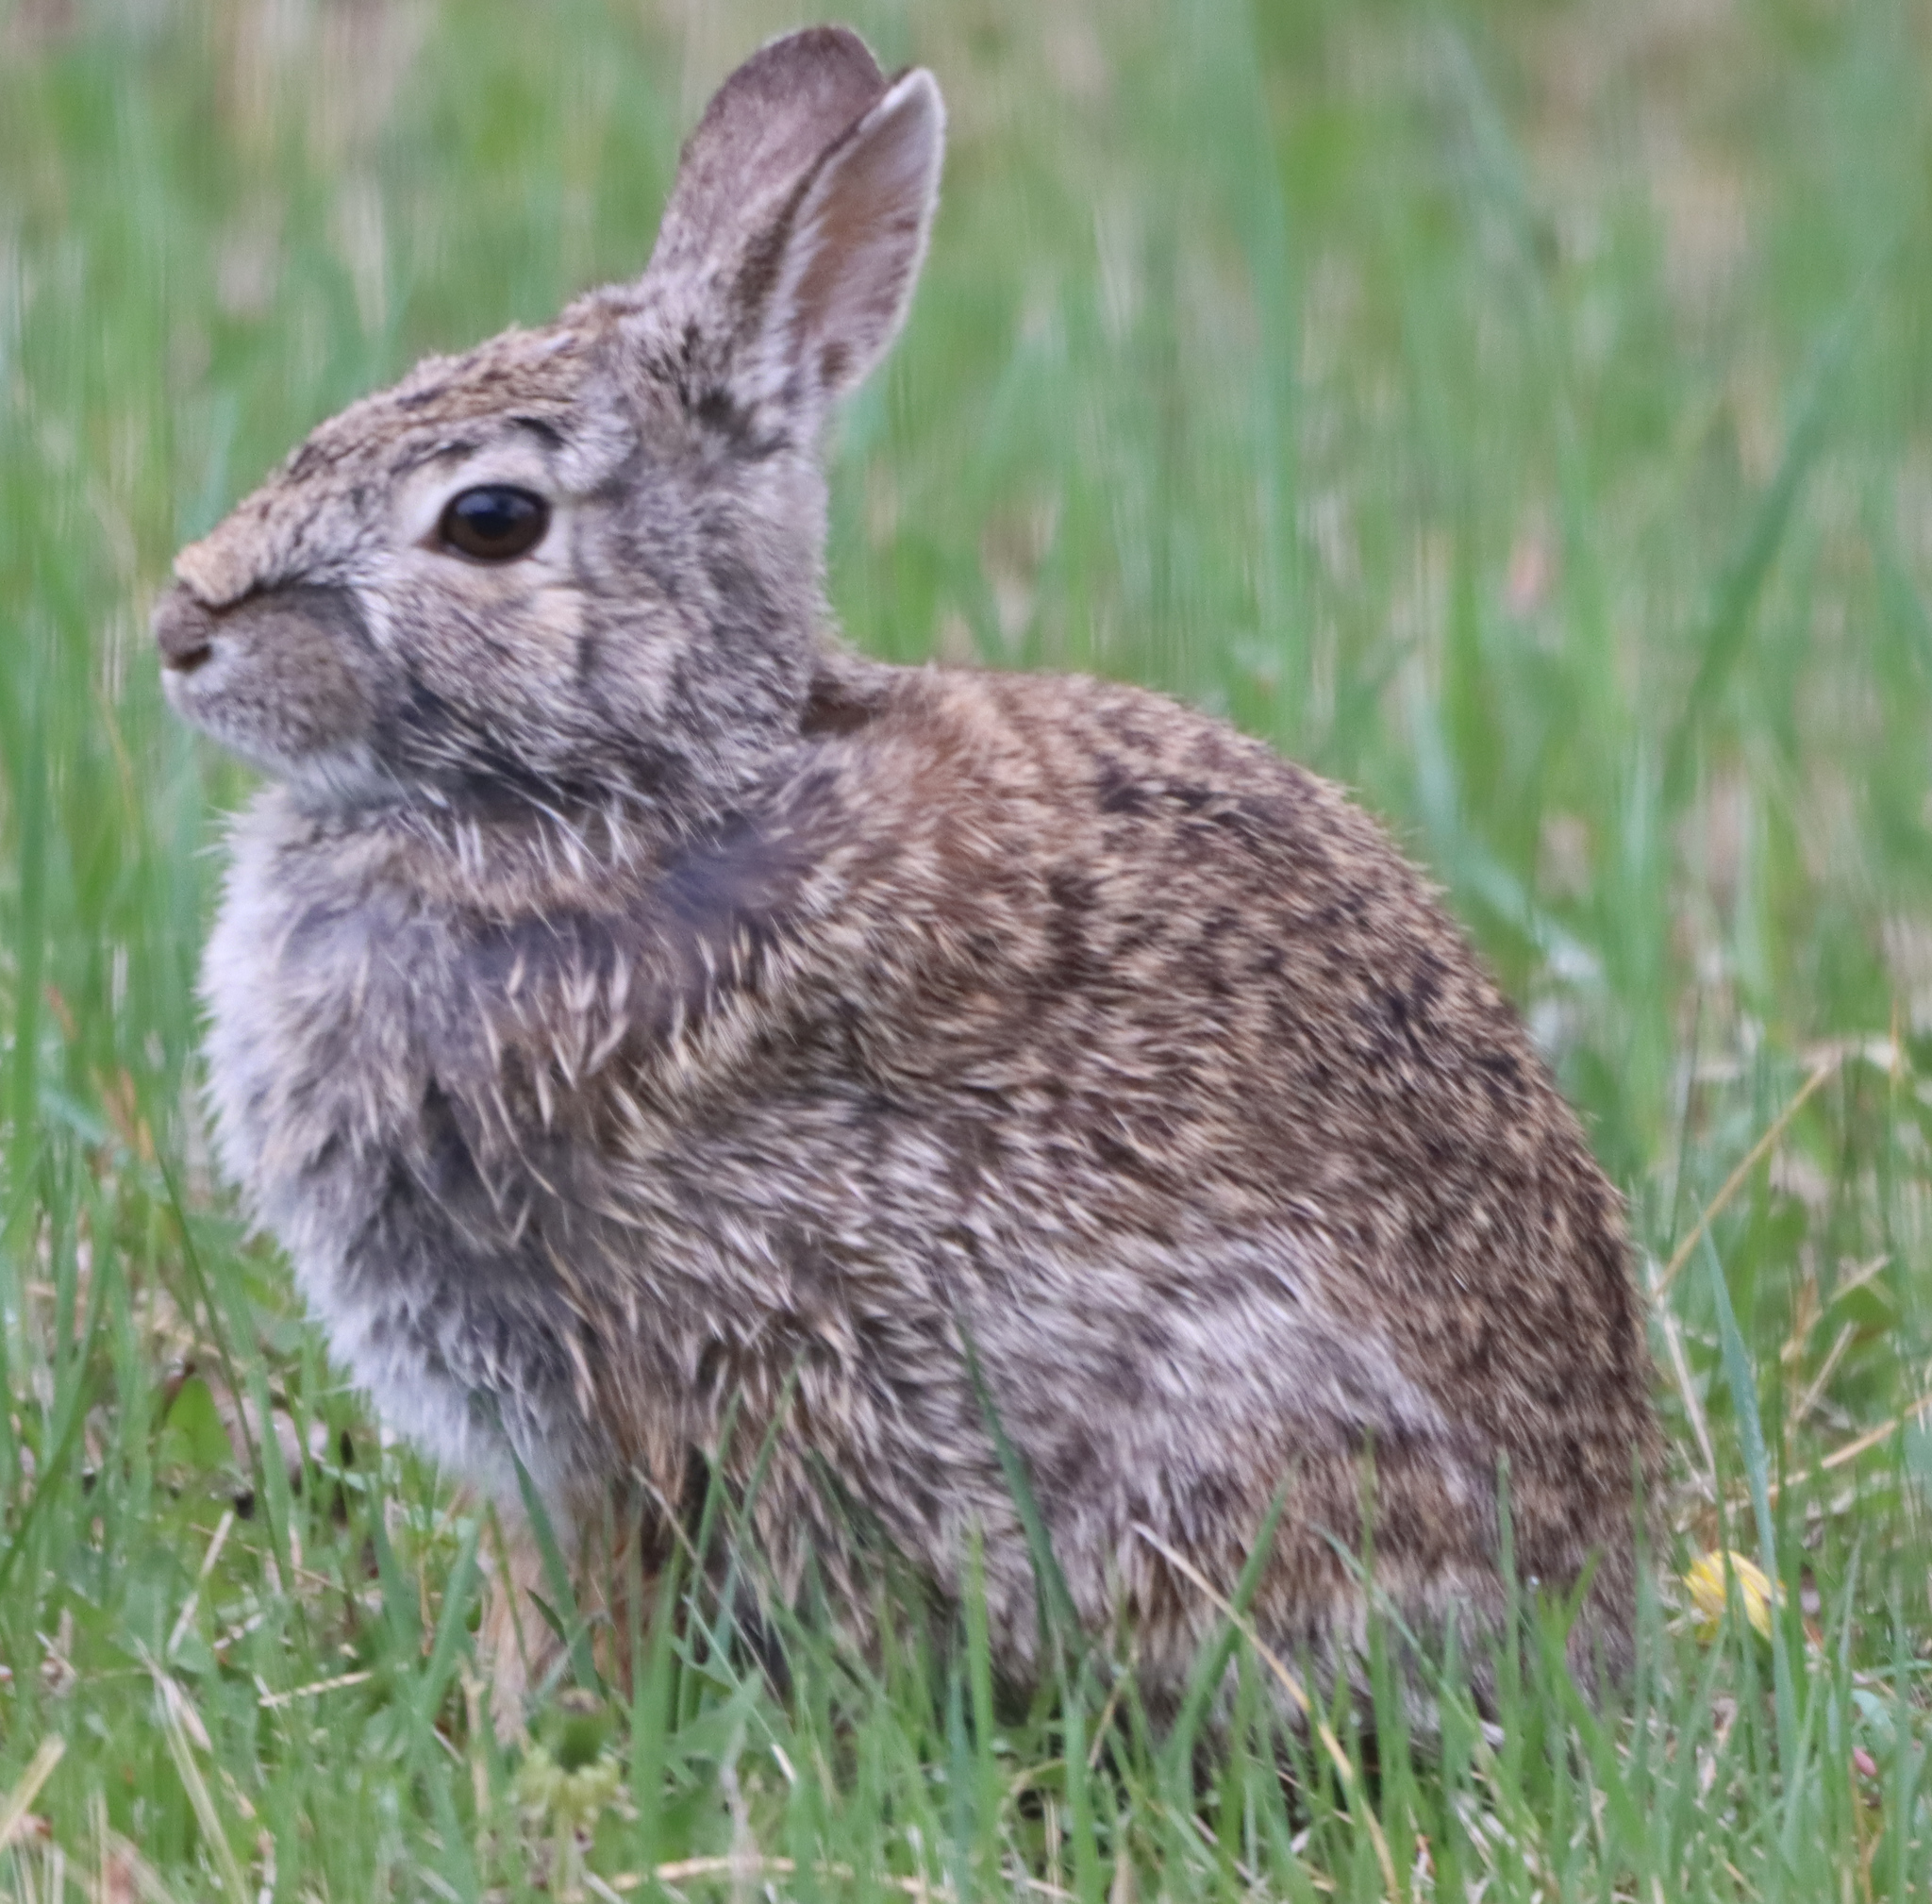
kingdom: Animalia
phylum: Chordata
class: Mammalia
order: Lagomorpha
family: Leporidae
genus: Sylvilagus
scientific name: Sylvilagus floridanus
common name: Eastern cottontail
